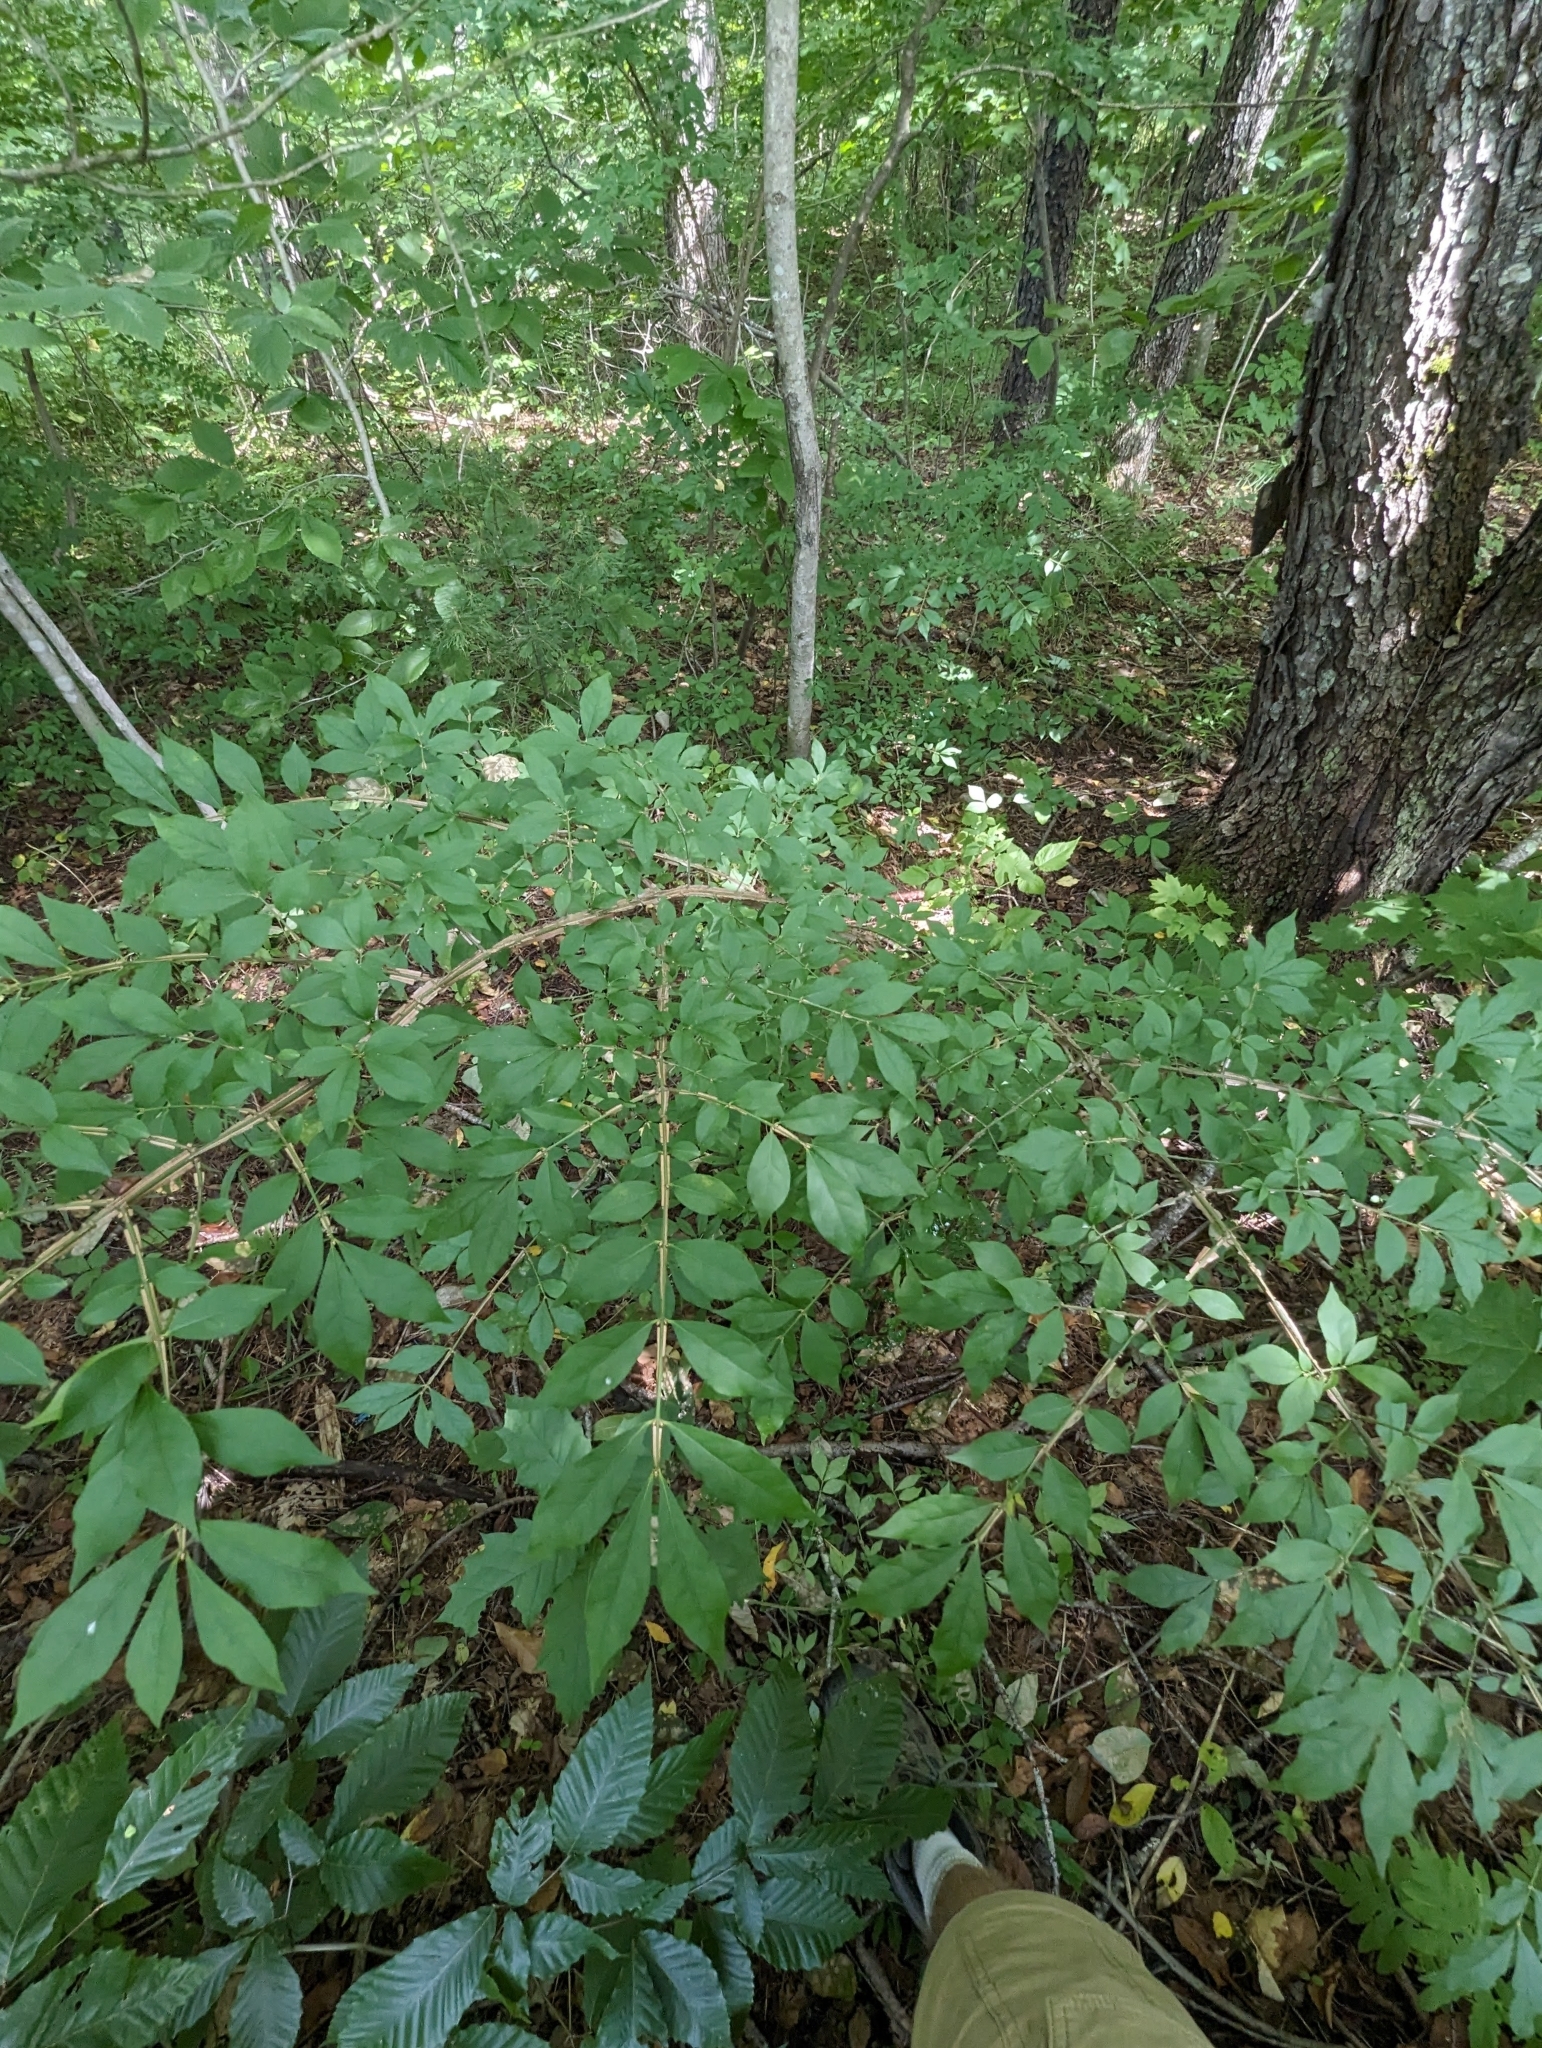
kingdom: Plantae
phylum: Tracheophyta
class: Magnoliopsida
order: Celastrales
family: Celastraceae
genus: Euonymus
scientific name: Euonymus alatus
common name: Winged euonymus
